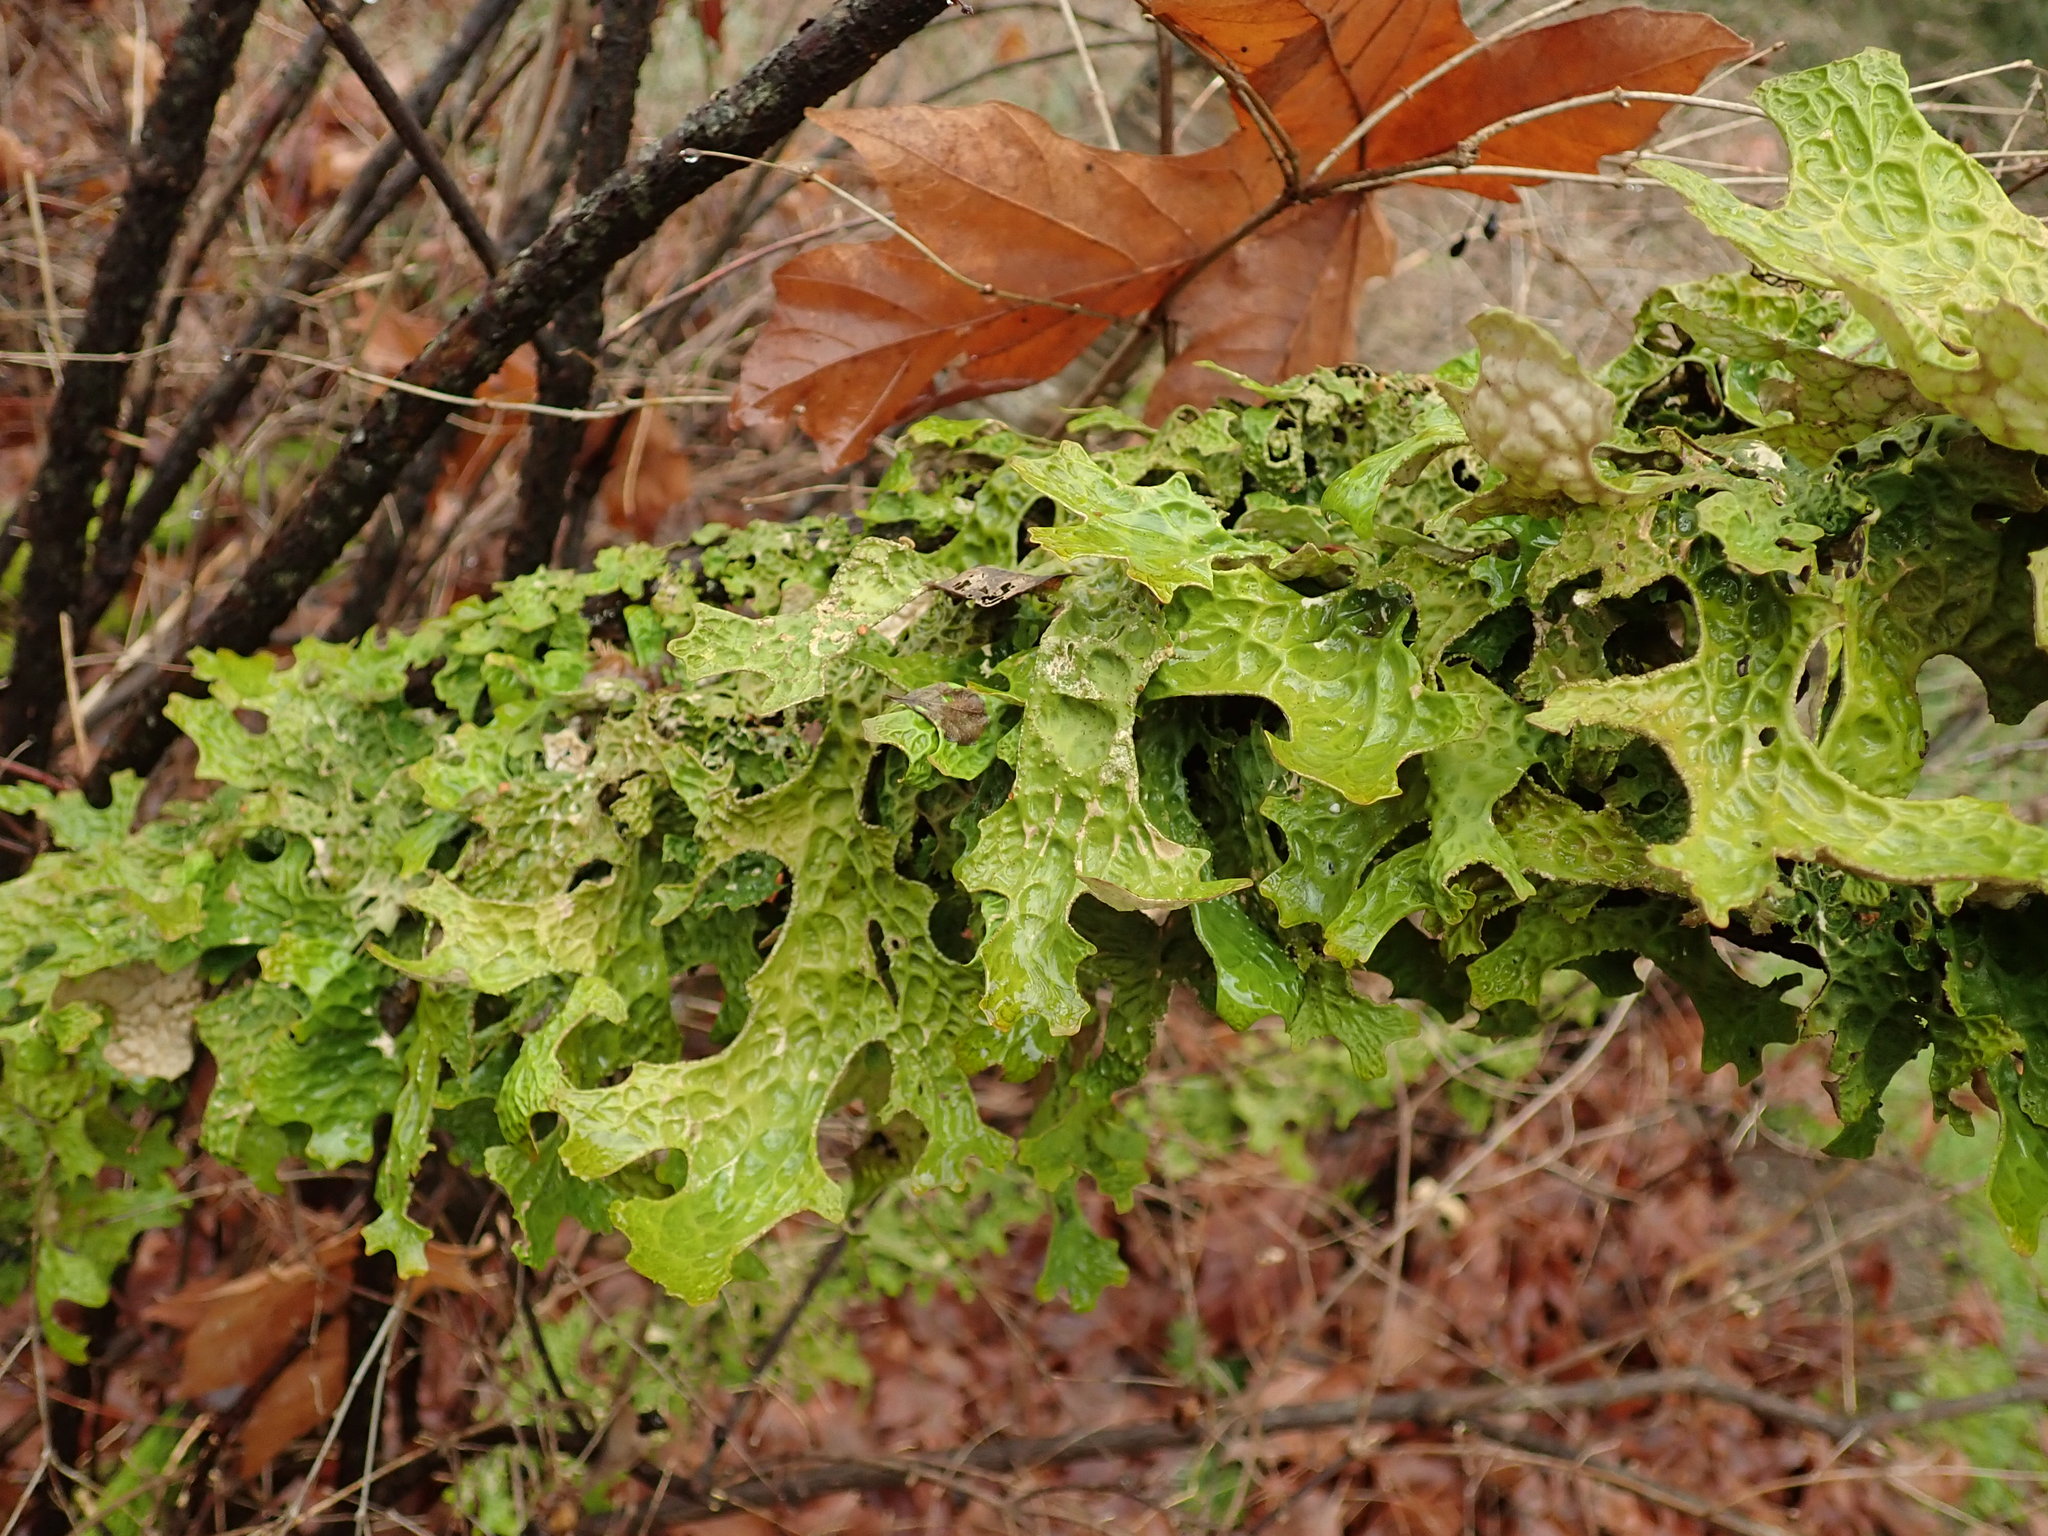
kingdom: Fungi
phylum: Ascomycota
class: Lecanoromycetes
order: Peltigerales
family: Lobariaceae
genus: Lobaria
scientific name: Lobaria pulmonaria
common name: Lungwort
